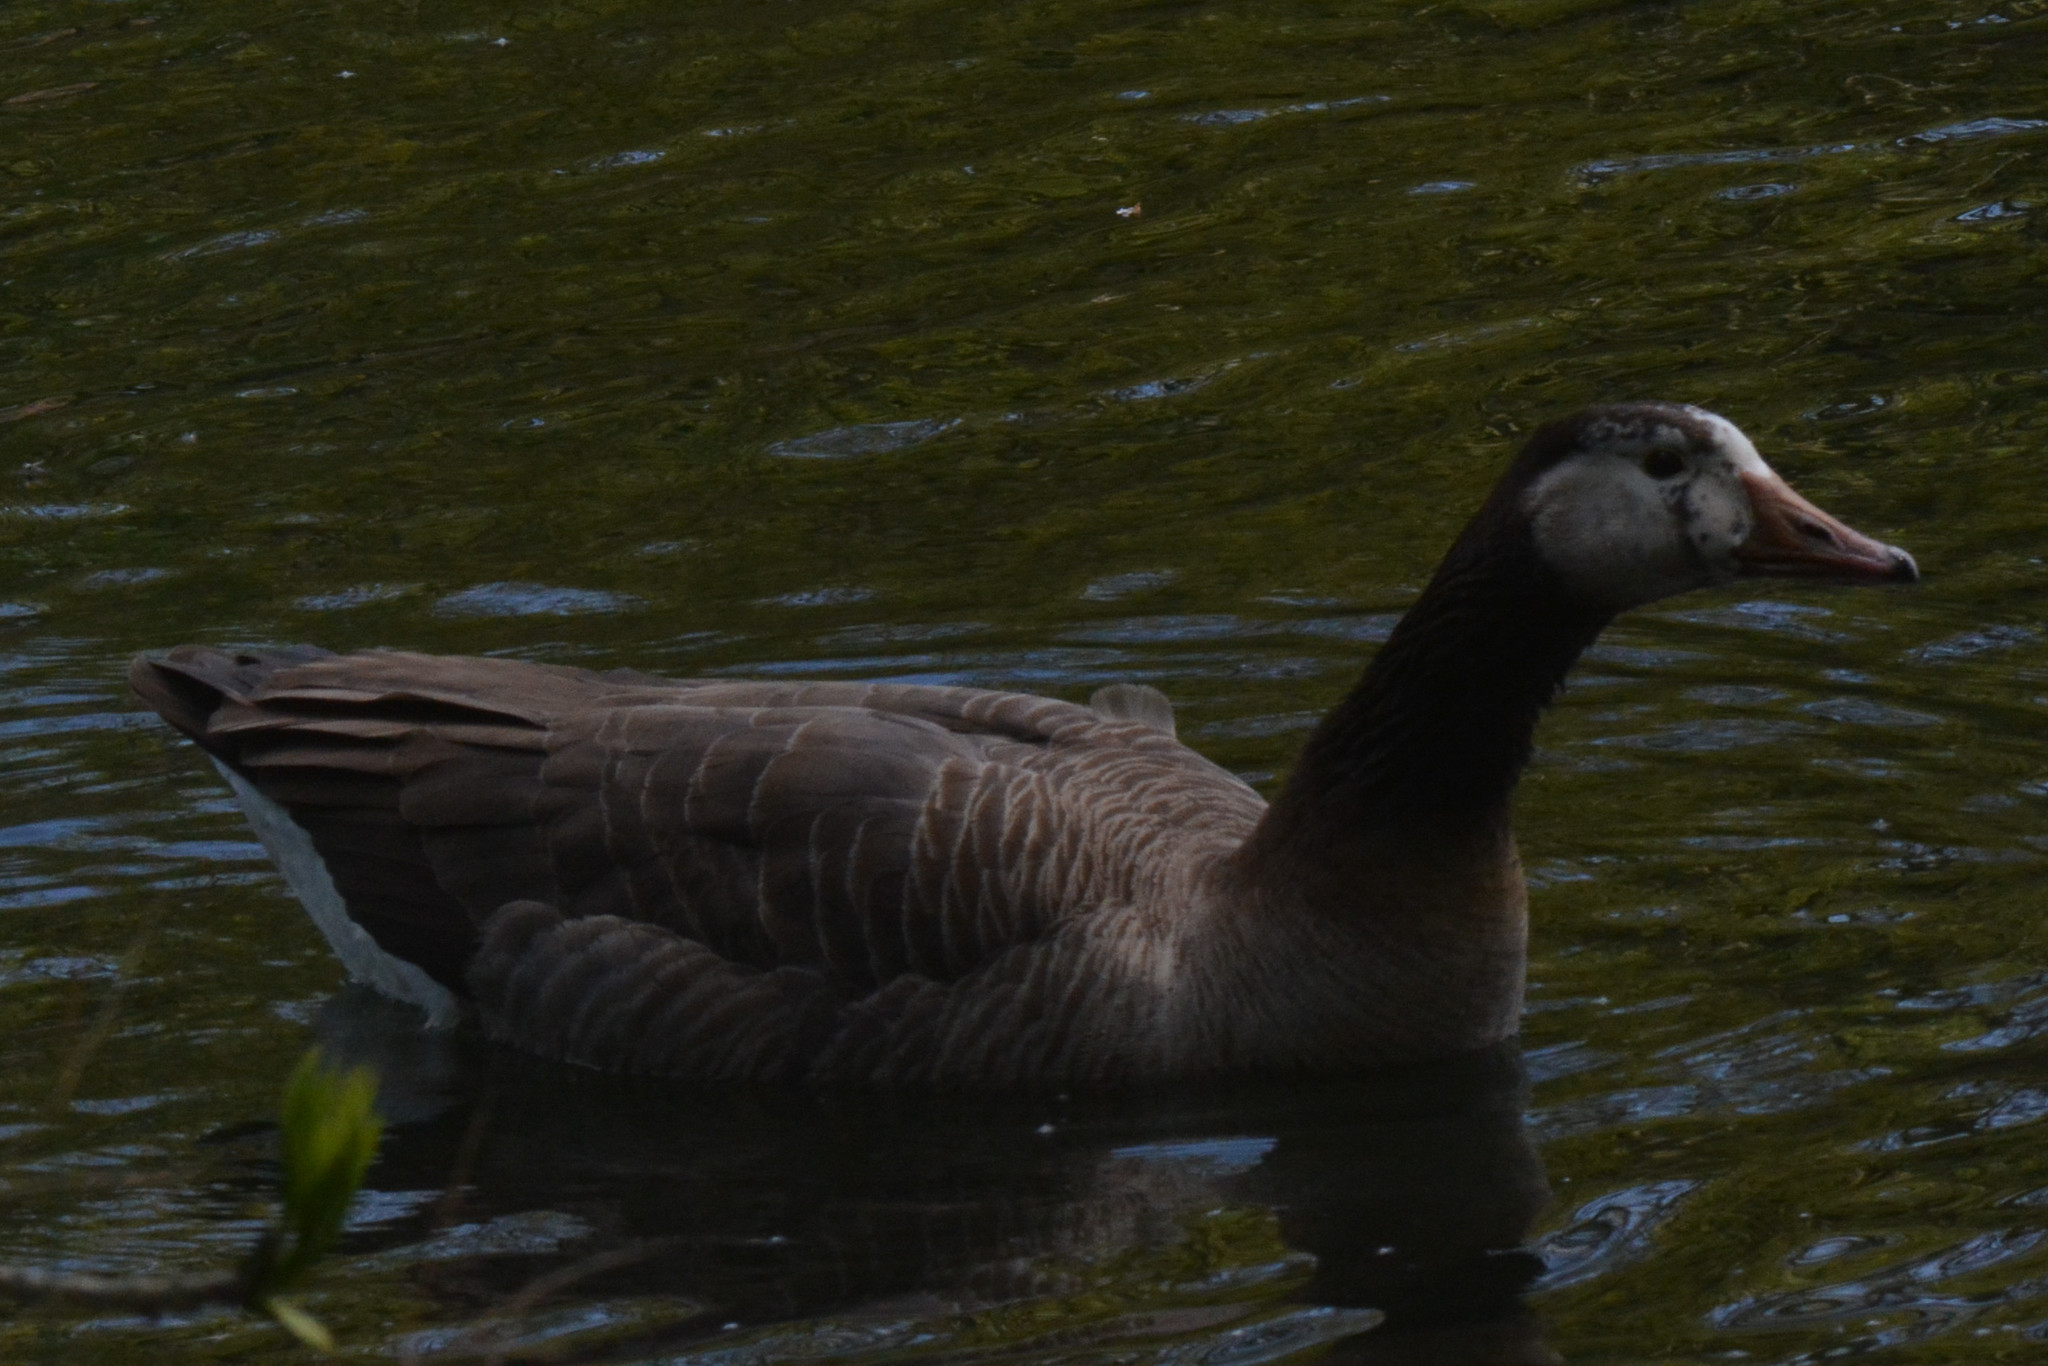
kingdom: Animalia
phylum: Chordata
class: Aves
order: Anseriformes
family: Anatidae
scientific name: Anatidae
